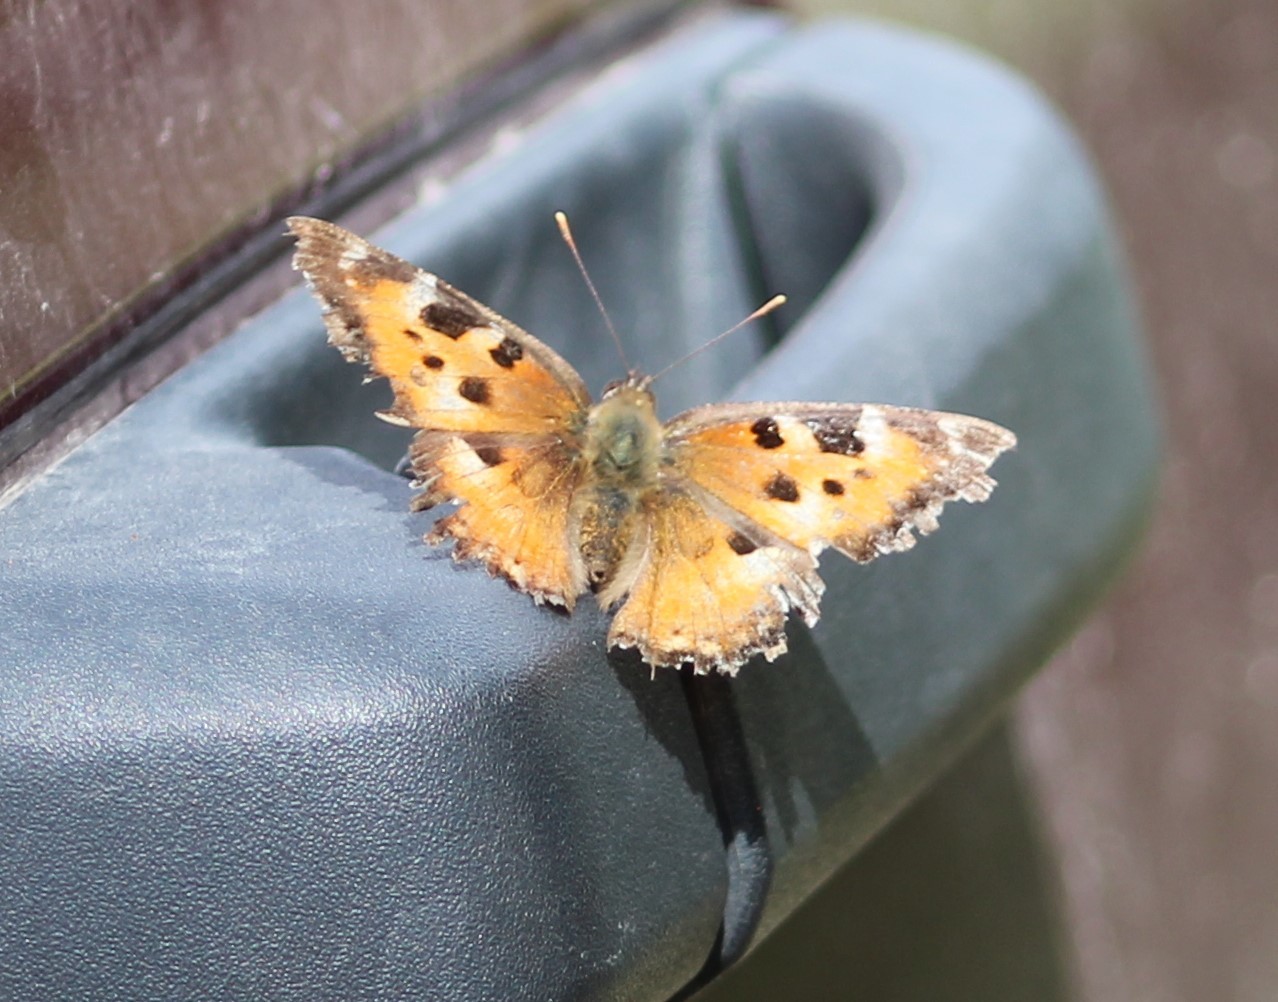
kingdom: Animalia
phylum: Arthropoda
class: Insecta
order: Lepidoptera
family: Nymphalidae
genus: Nymphalis
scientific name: Nymphalis californica
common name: California tortoiseshell
